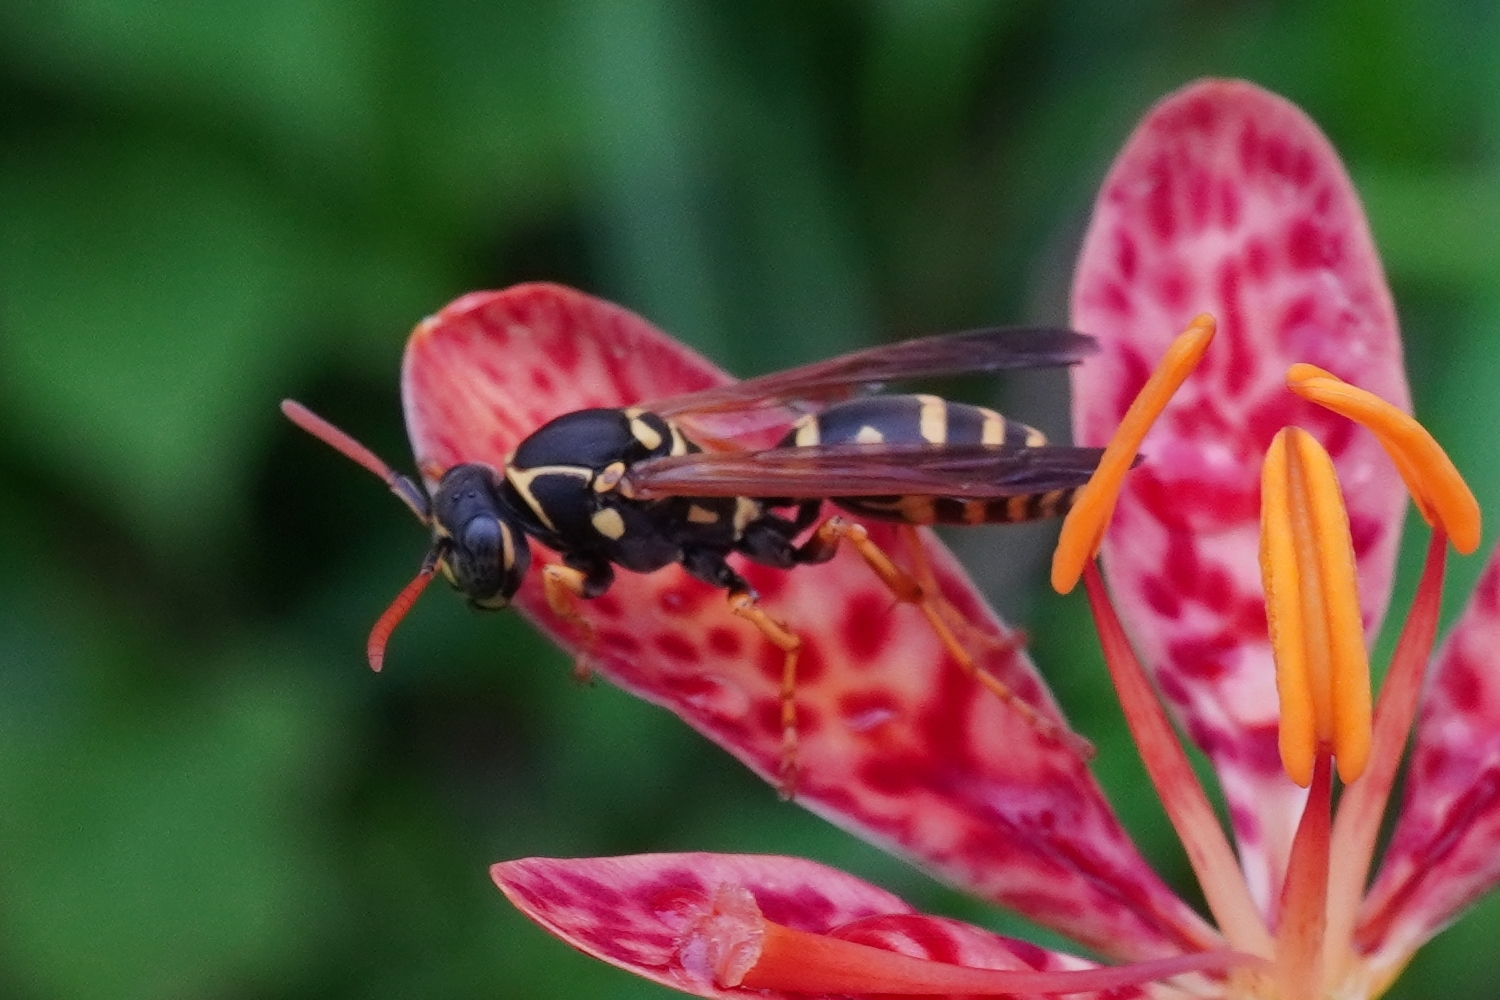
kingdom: Animalia
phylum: Arthropoda
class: Insecta
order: Hymenoptera
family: Eumenidae
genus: Polistes
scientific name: Polistes chinensis
